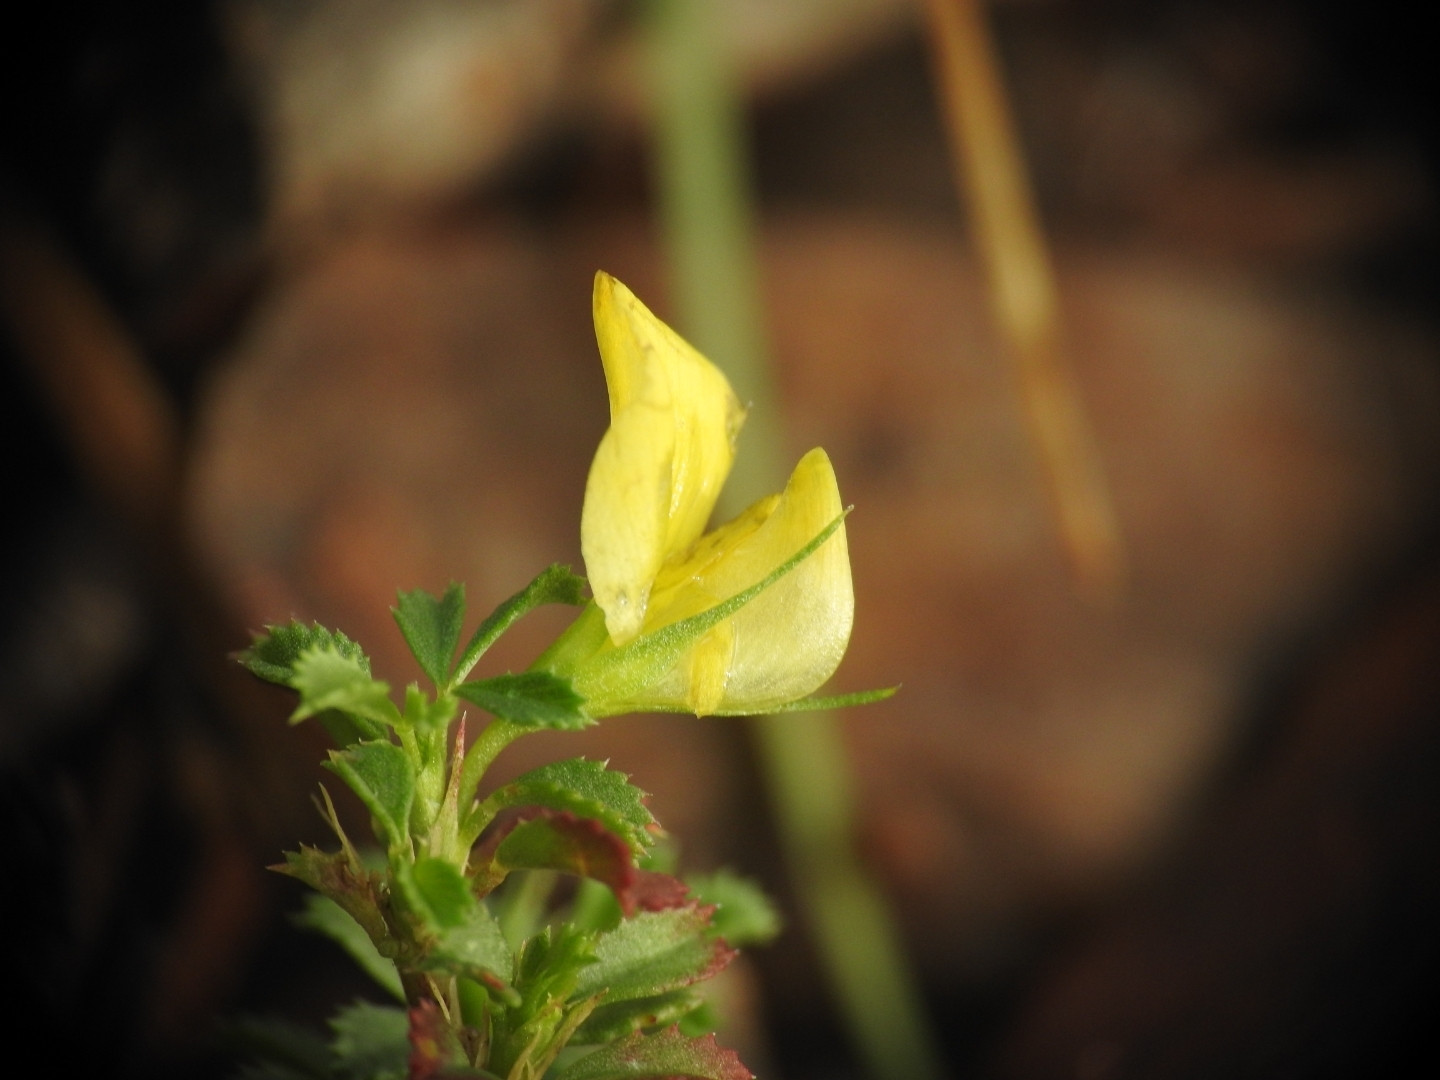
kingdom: Plantae
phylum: Tracheophyta
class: Magnoliopsida
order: Fabales
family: Fabaceae
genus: Ononis
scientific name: Ononis minutissima
